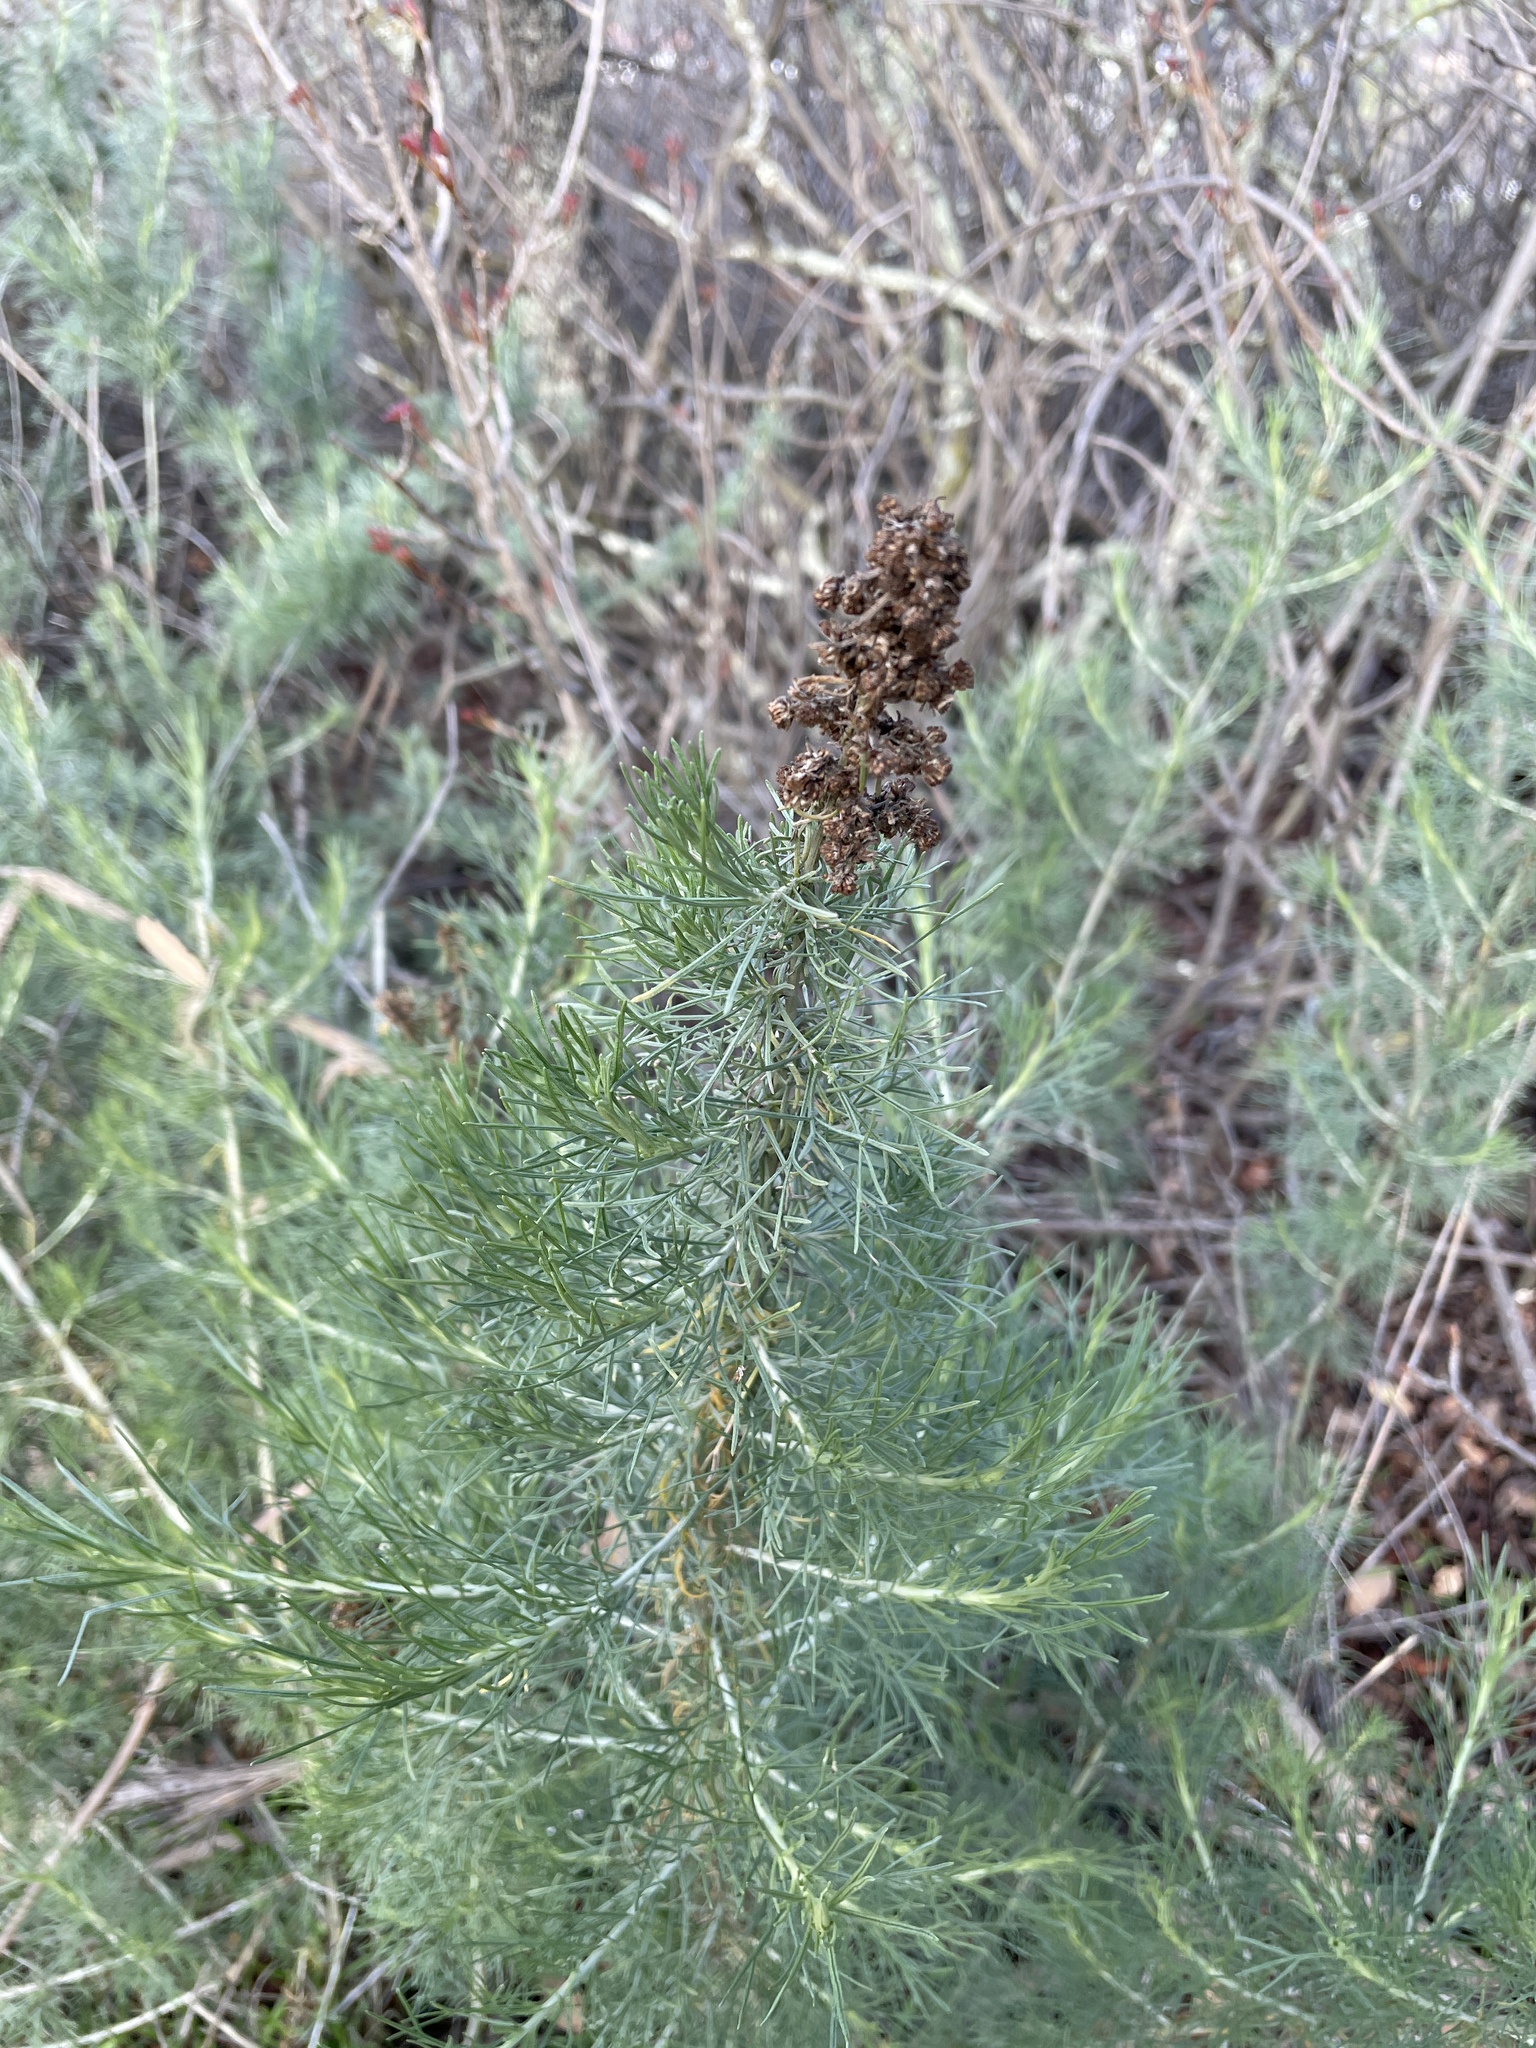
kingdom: Plantae
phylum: Tracheophyta
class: Magnoliopsida
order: Asterales
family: Asteraceae
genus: Artemisia
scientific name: Artemisia californica
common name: California sagebrush
